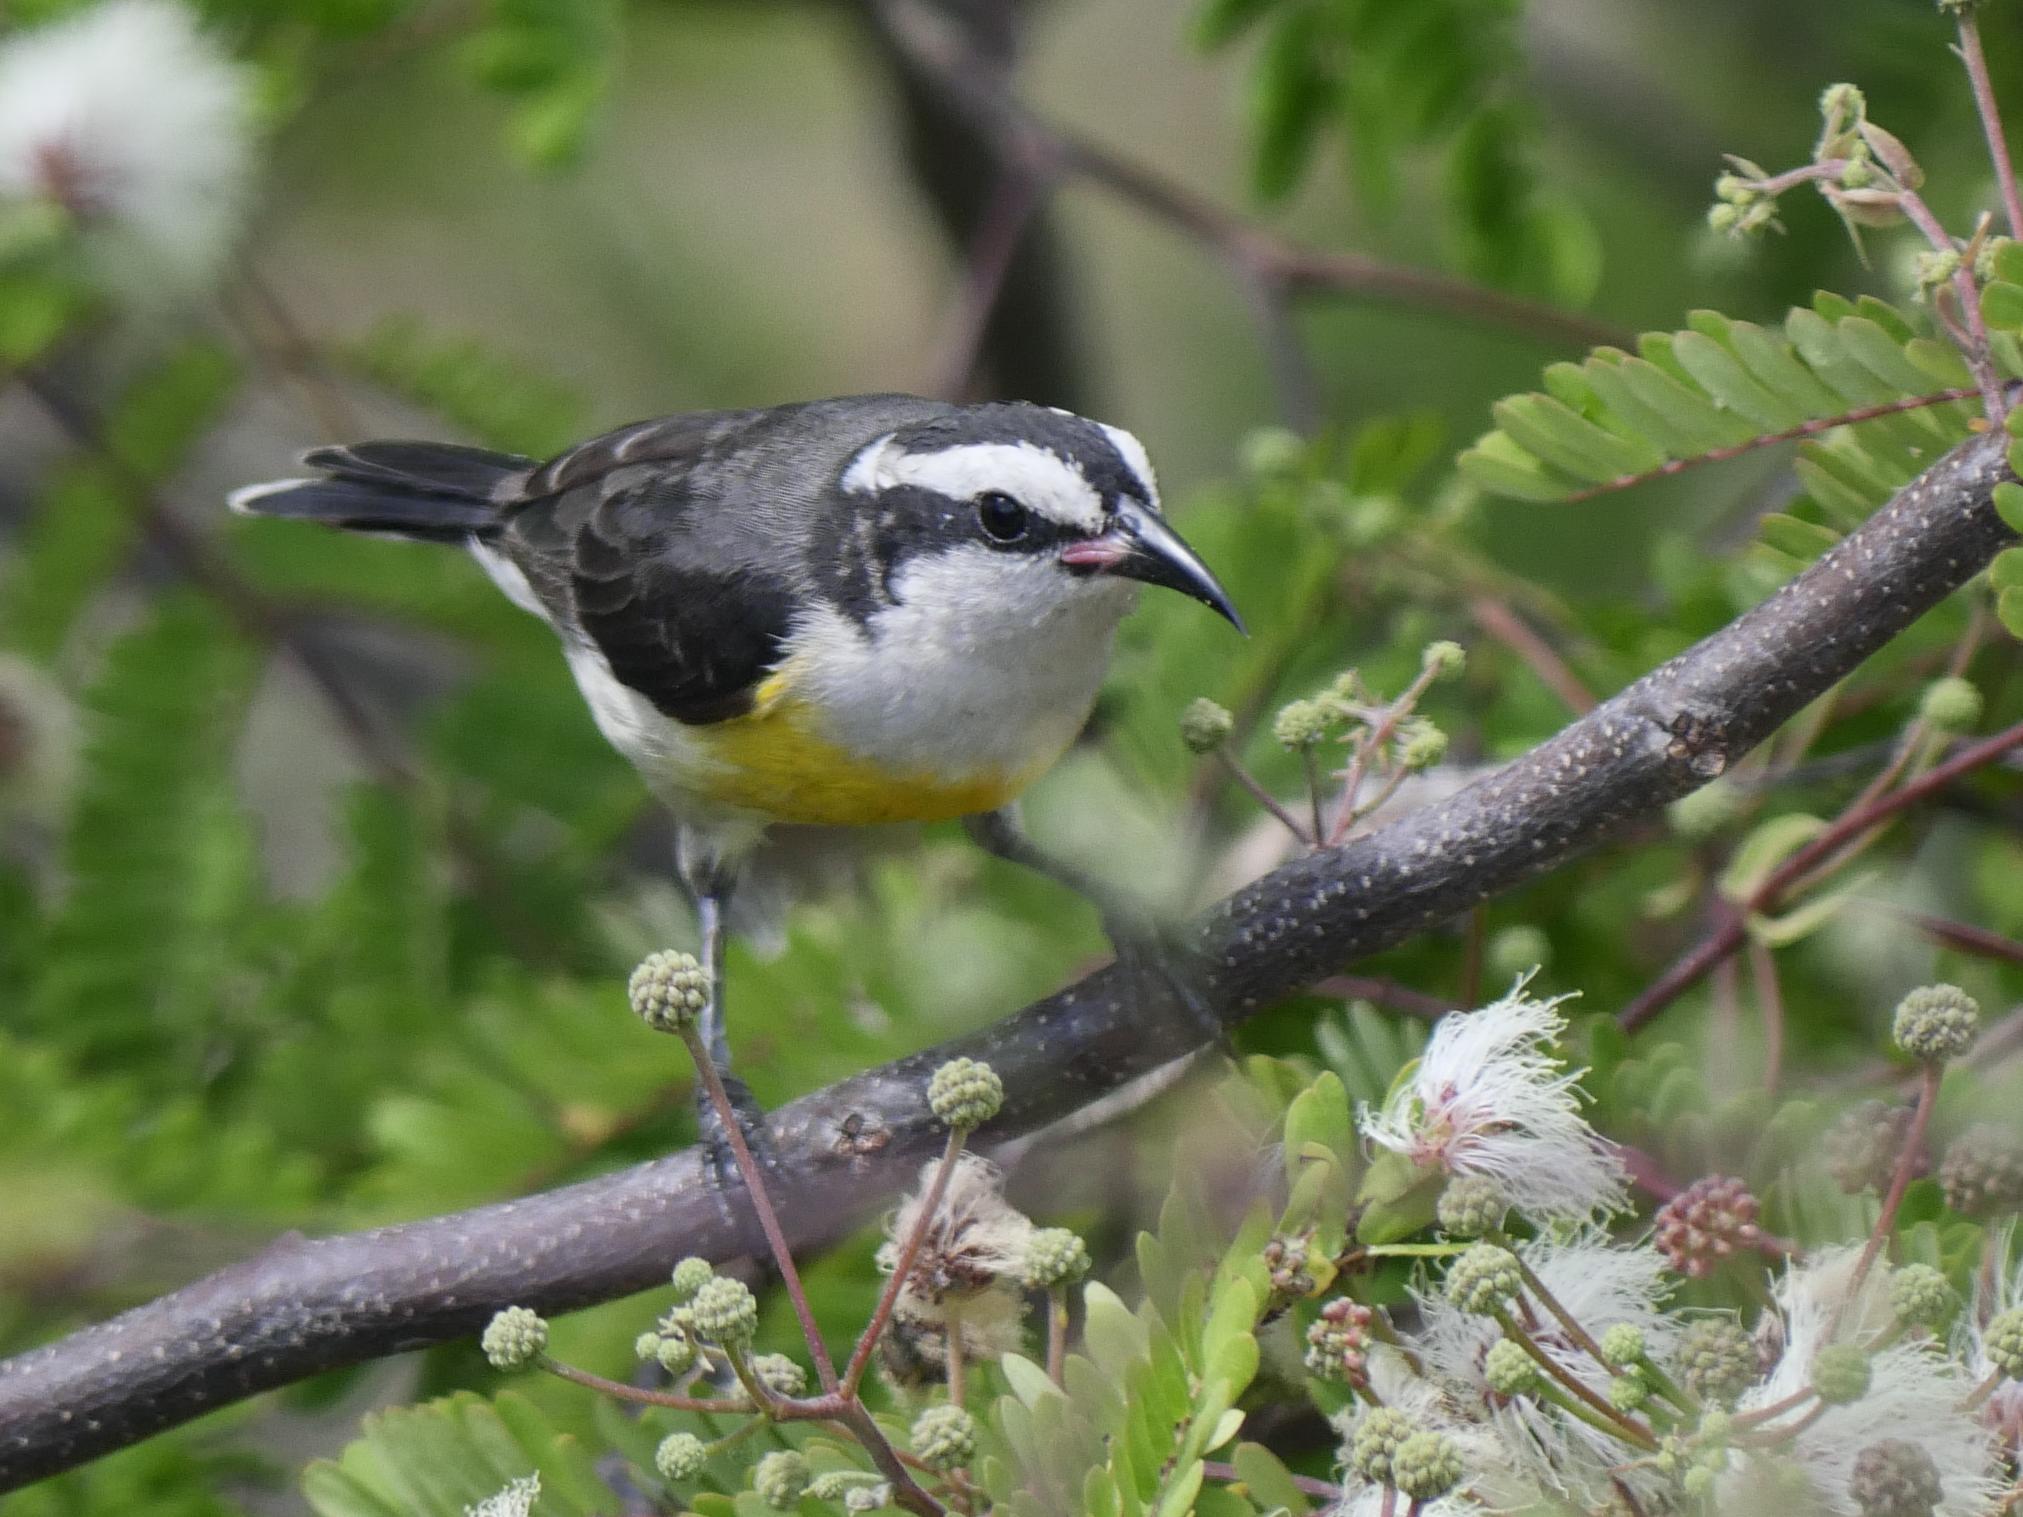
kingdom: Animalia
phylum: Chordata
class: Aves
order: Passeriformes
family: Thraupidae
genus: Coereba
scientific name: Coereba flaveola
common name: Bananaquit
